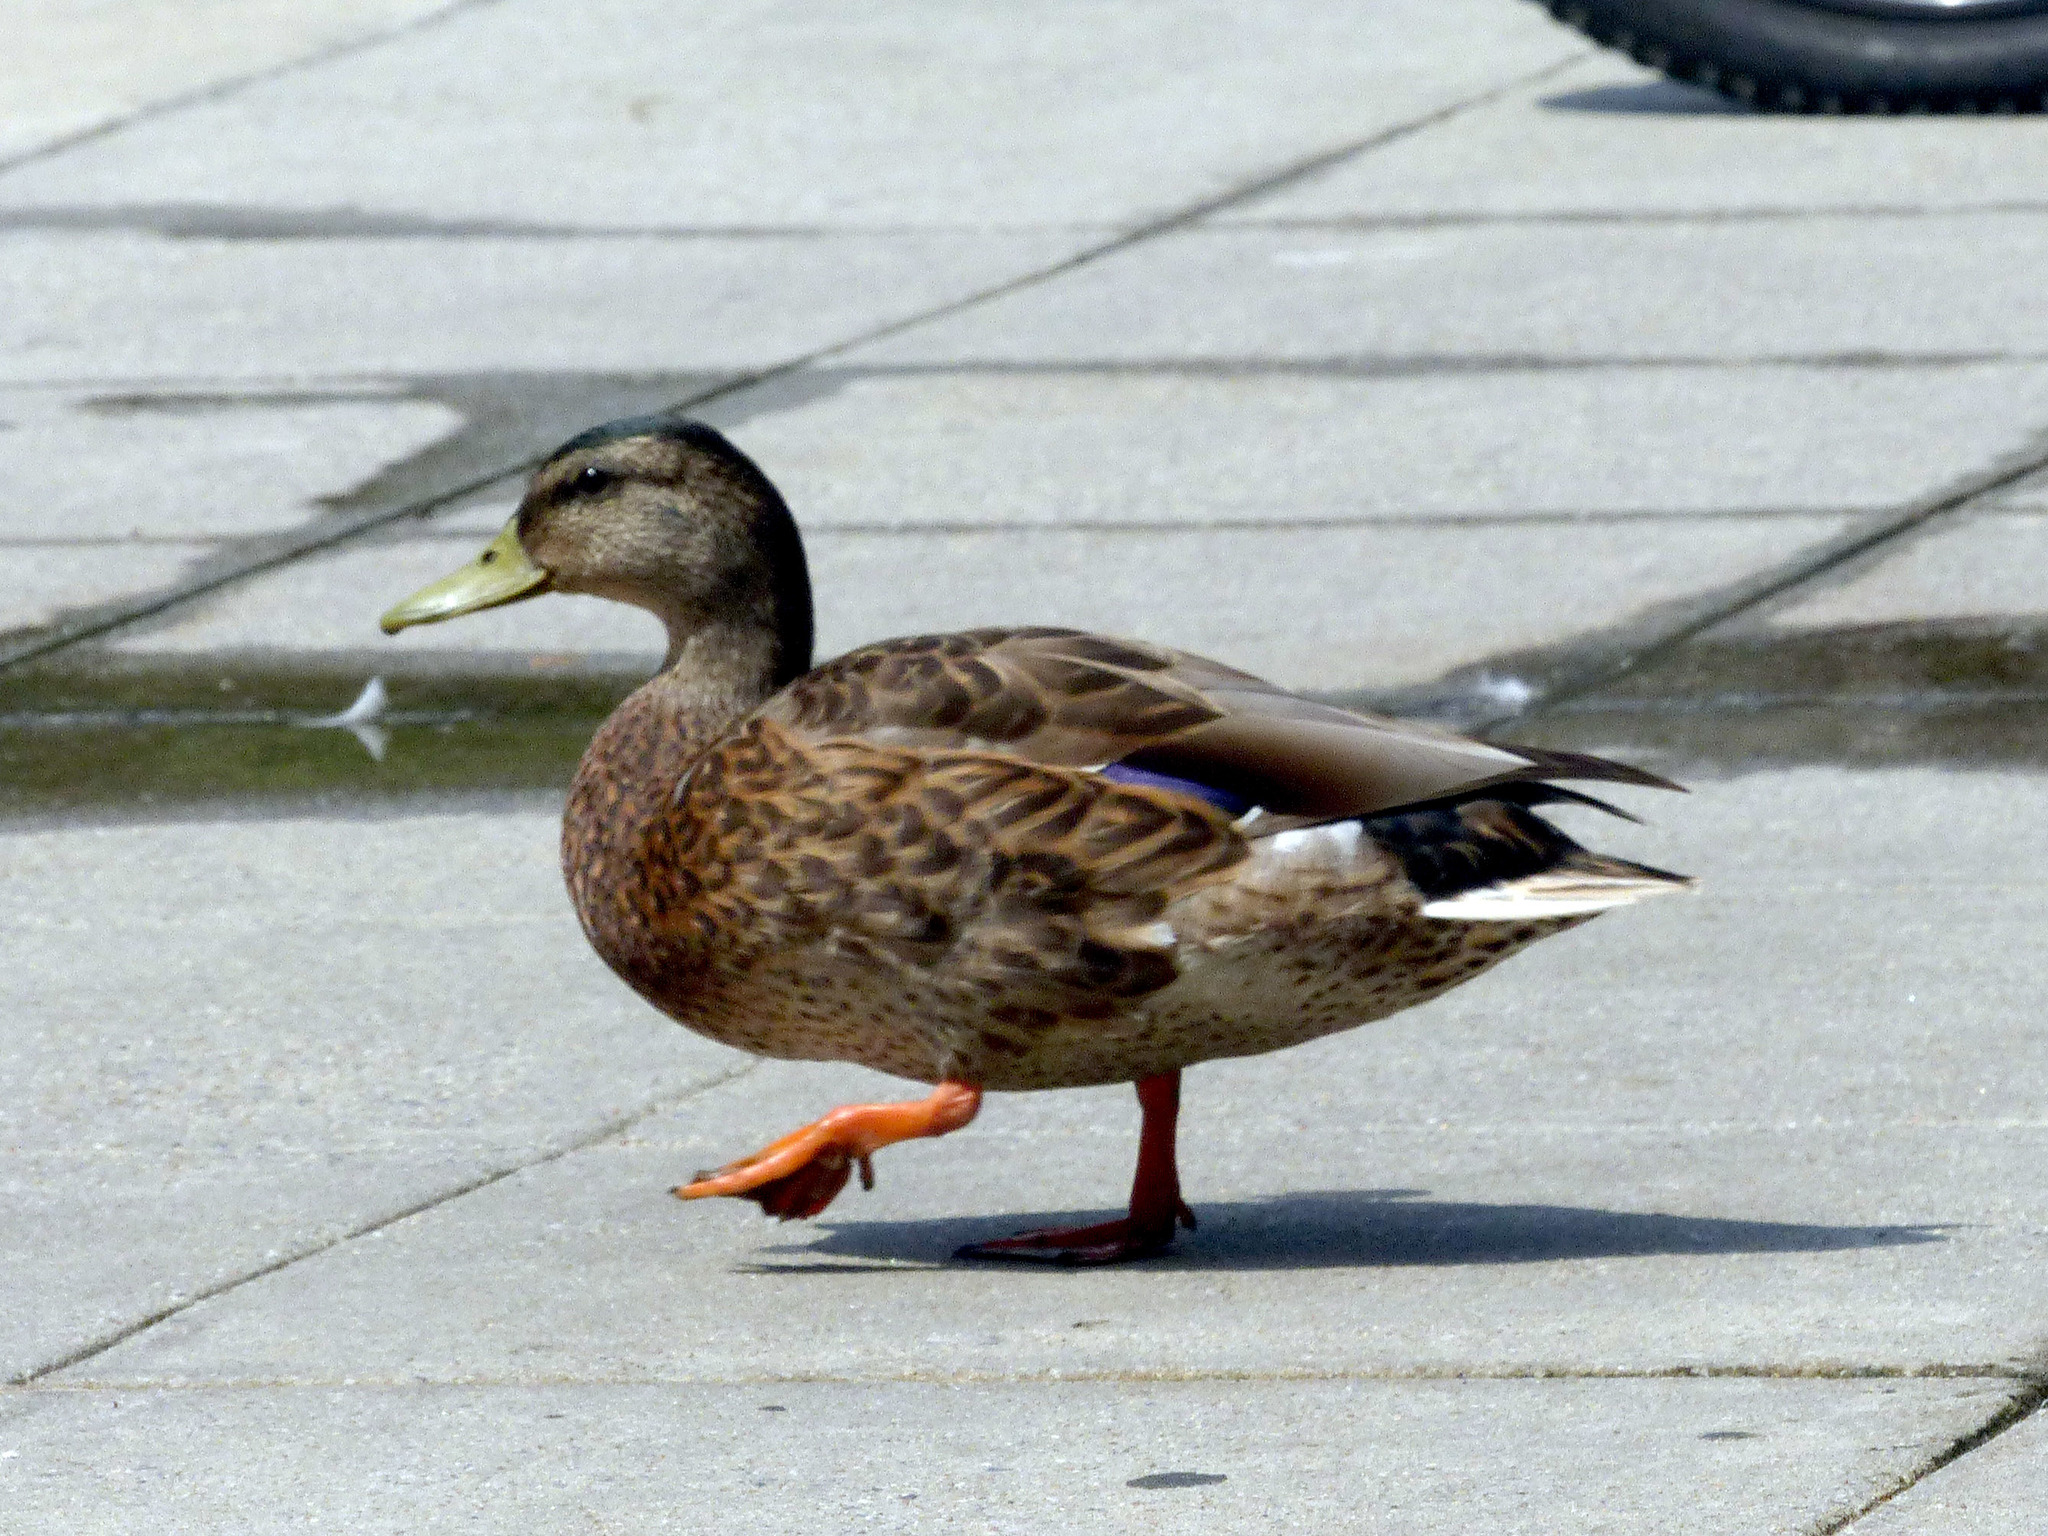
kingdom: Animalia
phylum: Chordata
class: Aves
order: Anseriformes
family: Anatidae
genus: Anas
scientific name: Anas platyrhynchos
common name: Mallard
